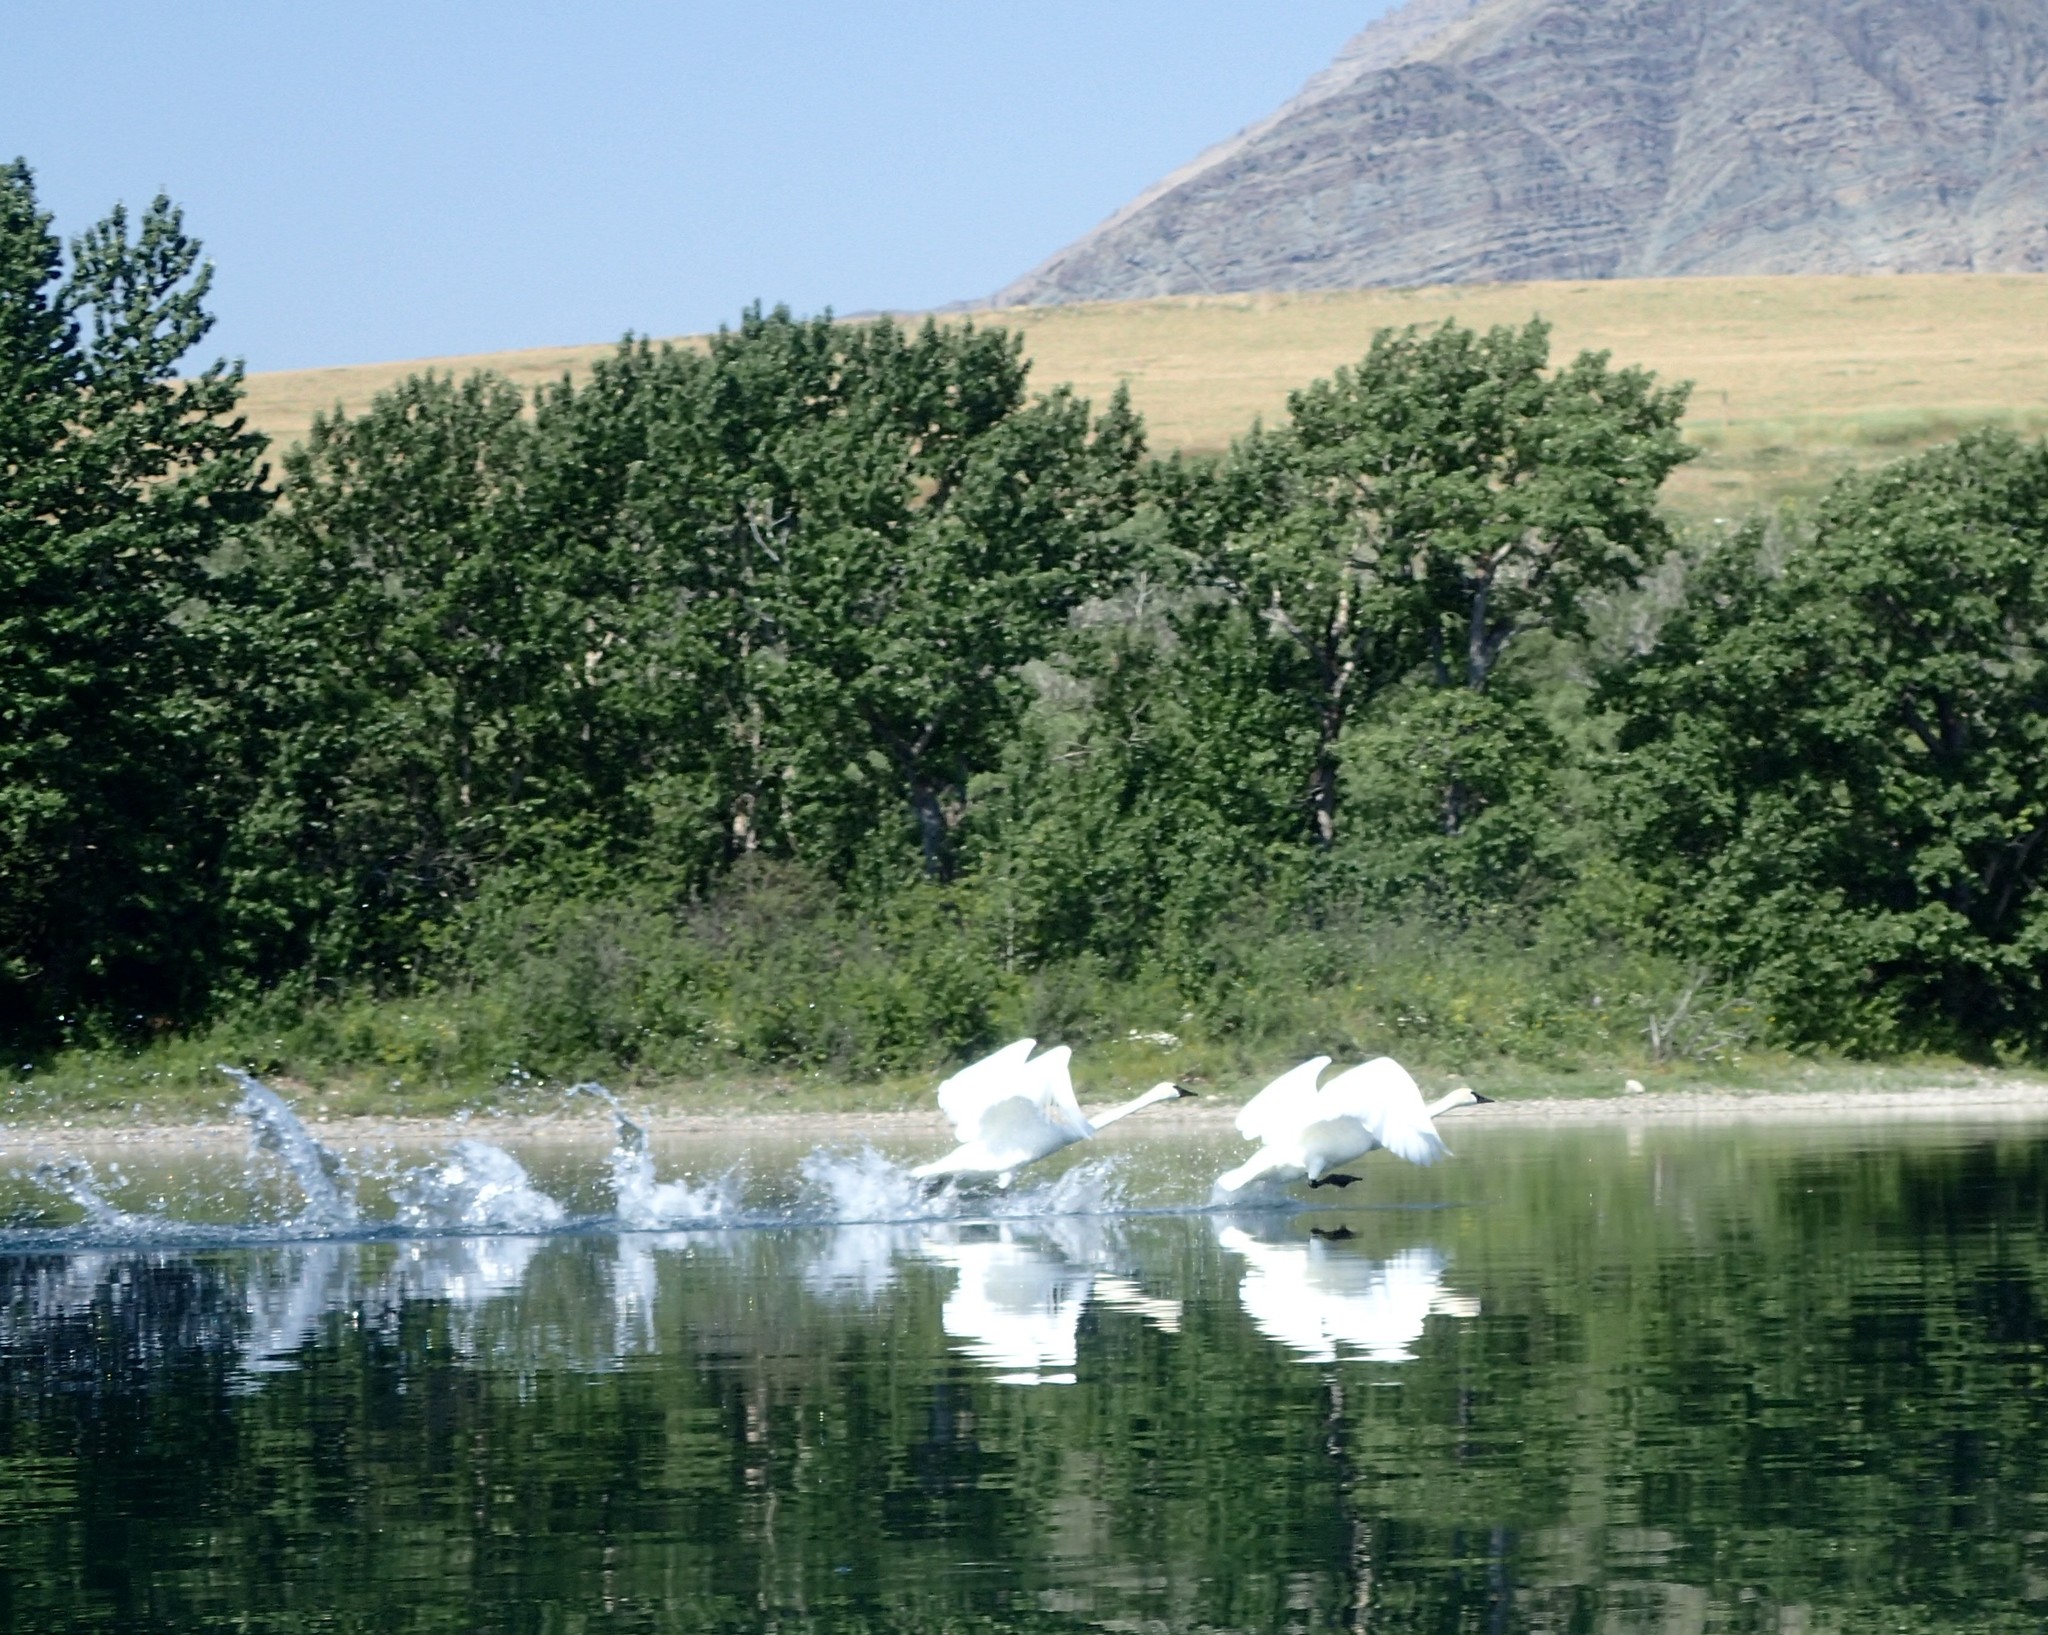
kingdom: Animalia
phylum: Chordata
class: Aves
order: Anseriformes
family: Anatidae
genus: Cygnus
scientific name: Cygnus buccinator
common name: Trumpeter swan
